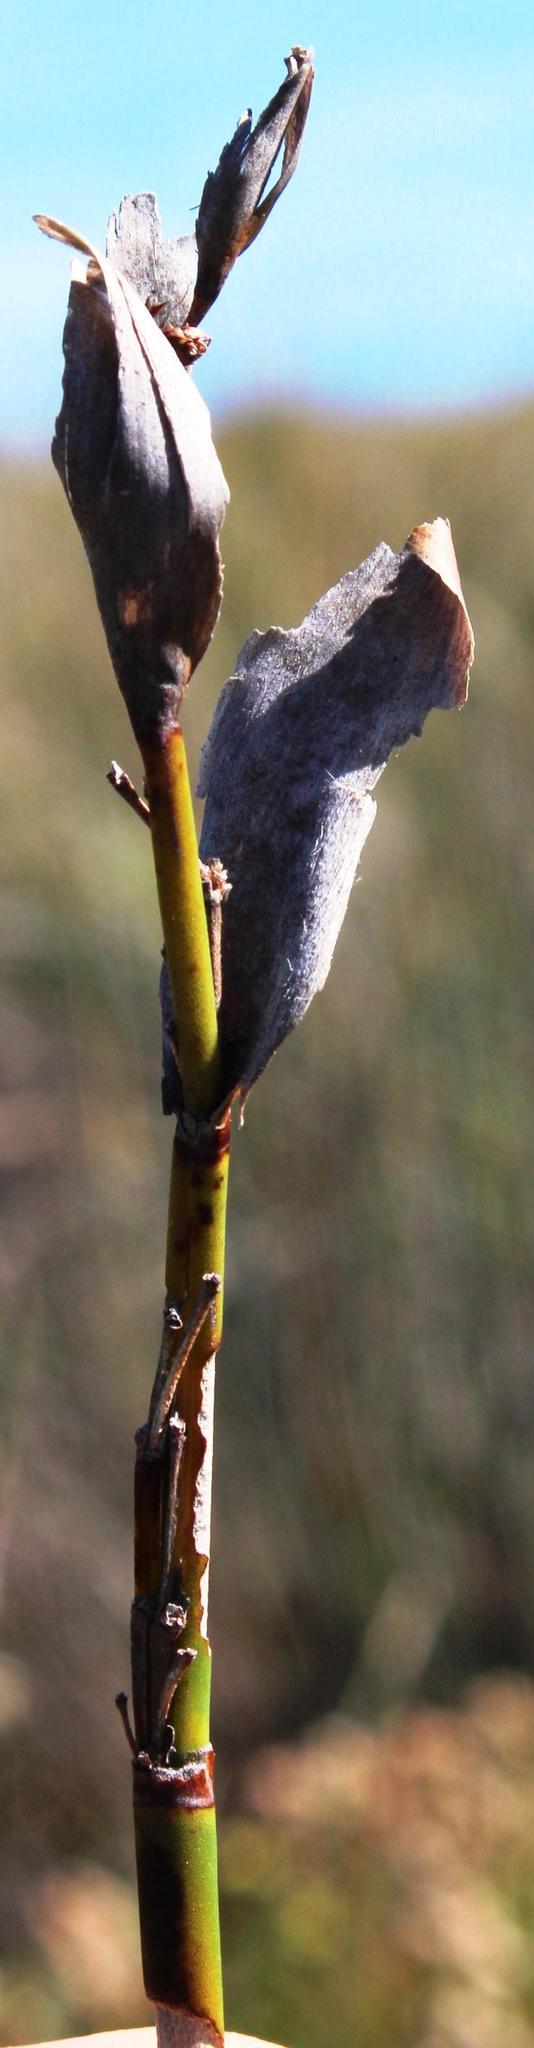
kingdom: Plantae
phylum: Tracheophyta
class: Liliopsida
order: Poales
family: Restionaceae
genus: Elegia
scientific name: Elegia mucronata
